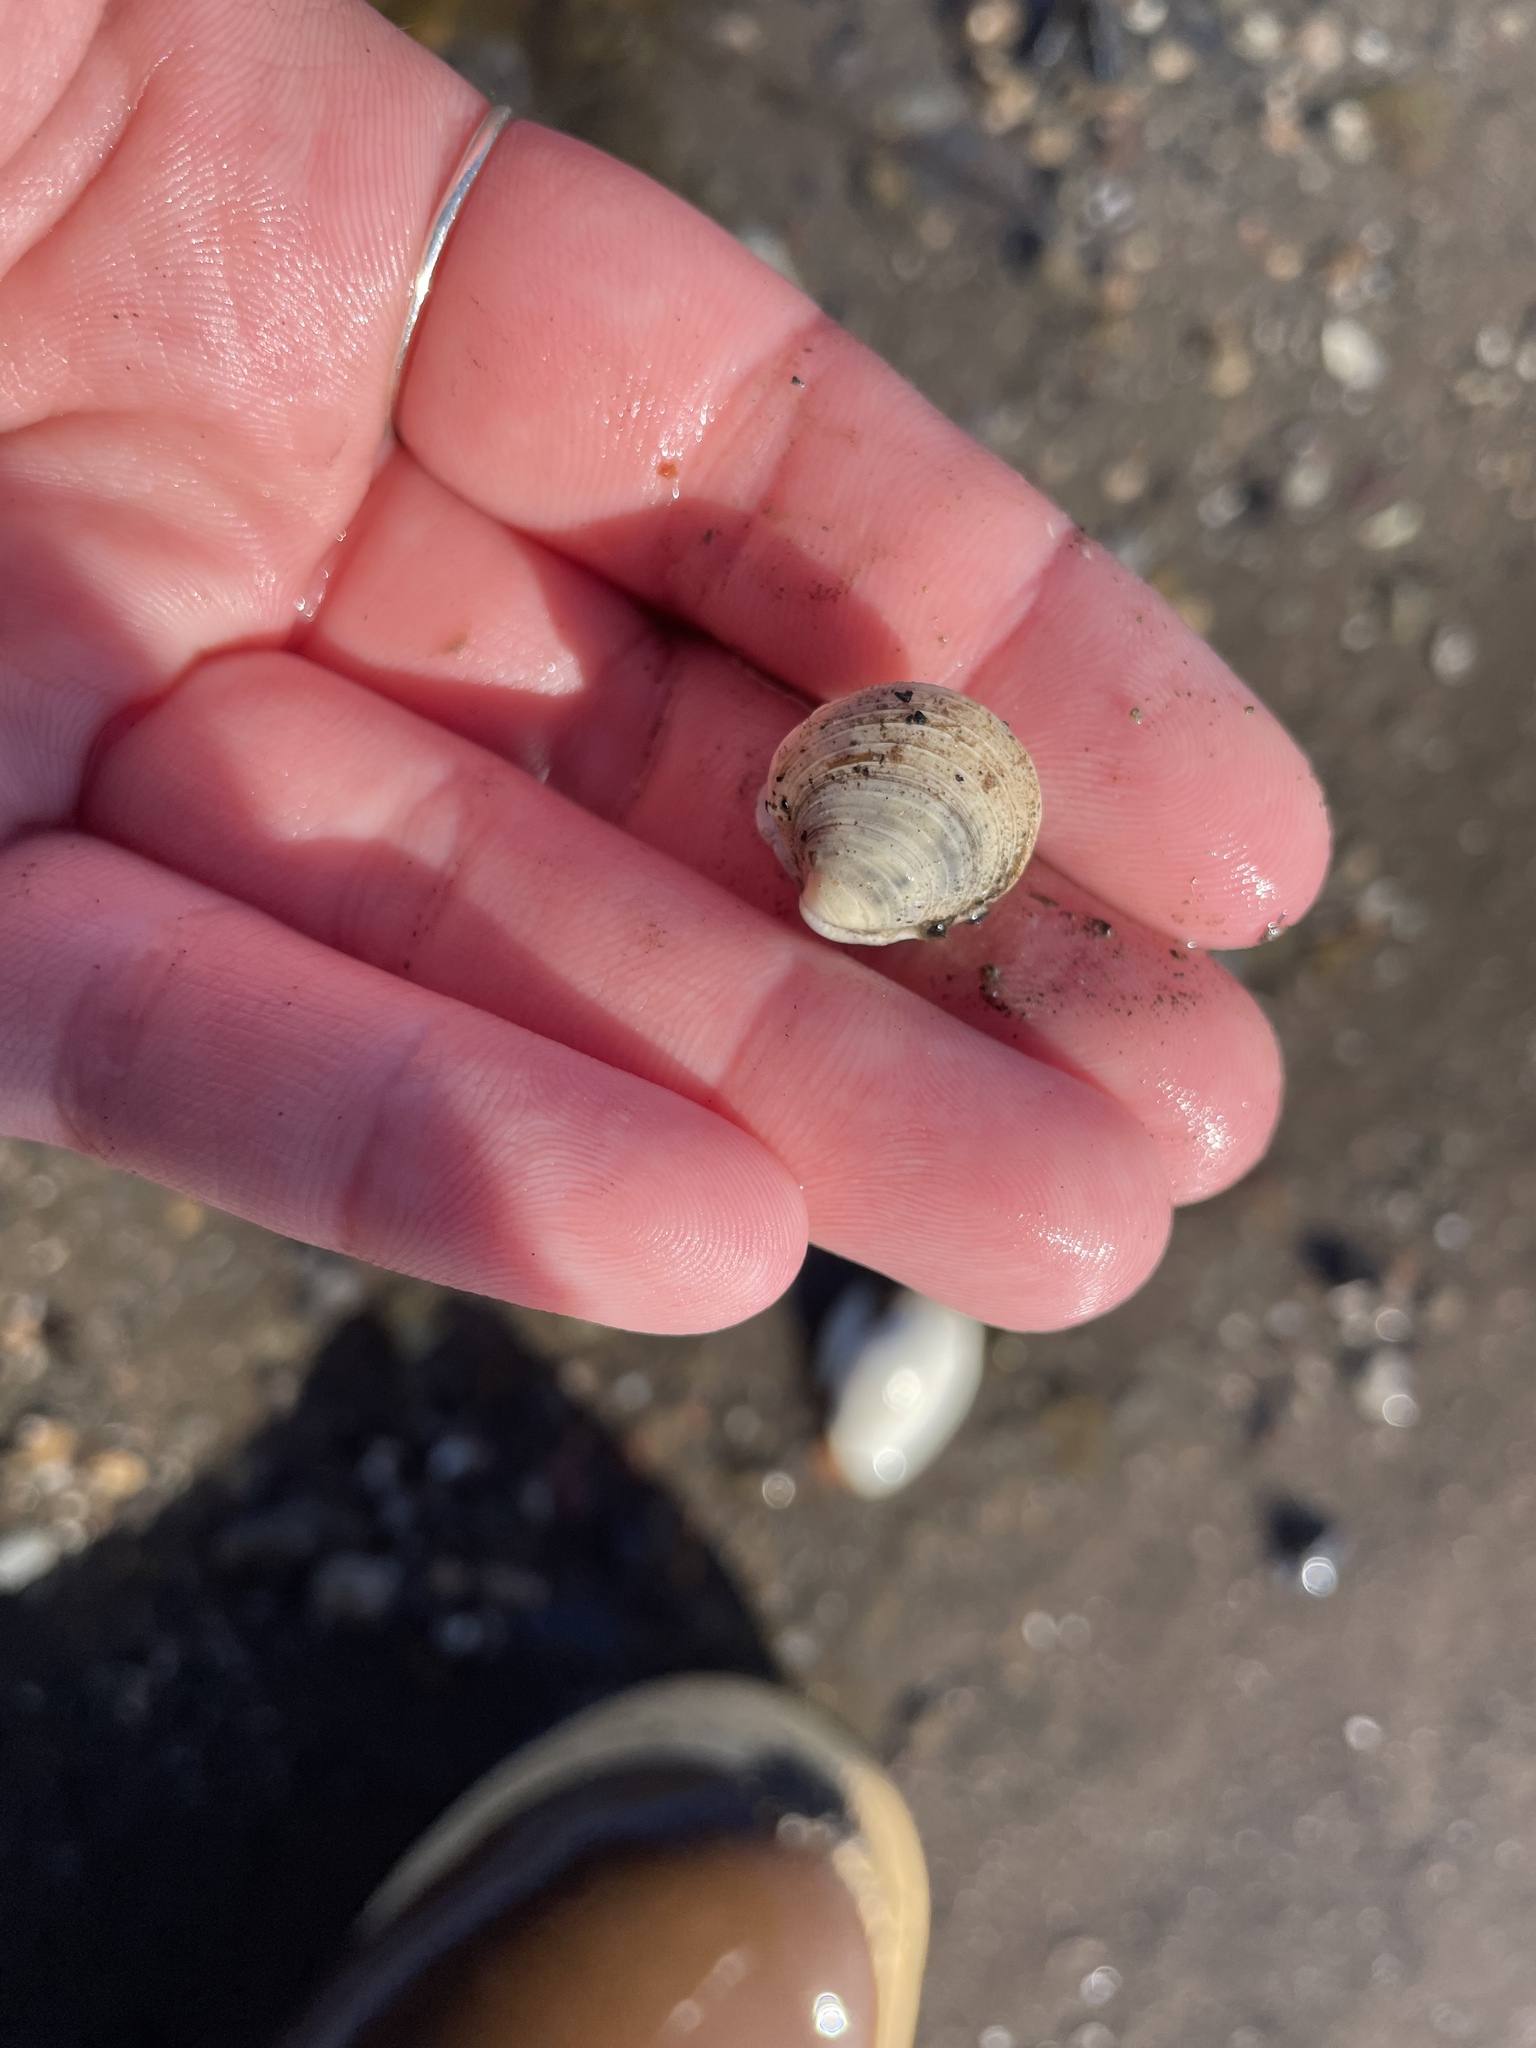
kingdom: Animalia
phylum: Mollusca
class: Bivalvia
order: Venerida
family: Veneridae
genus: Mercenaria
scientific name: Mercenaria mercenaria
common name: American hard-shelled clam
